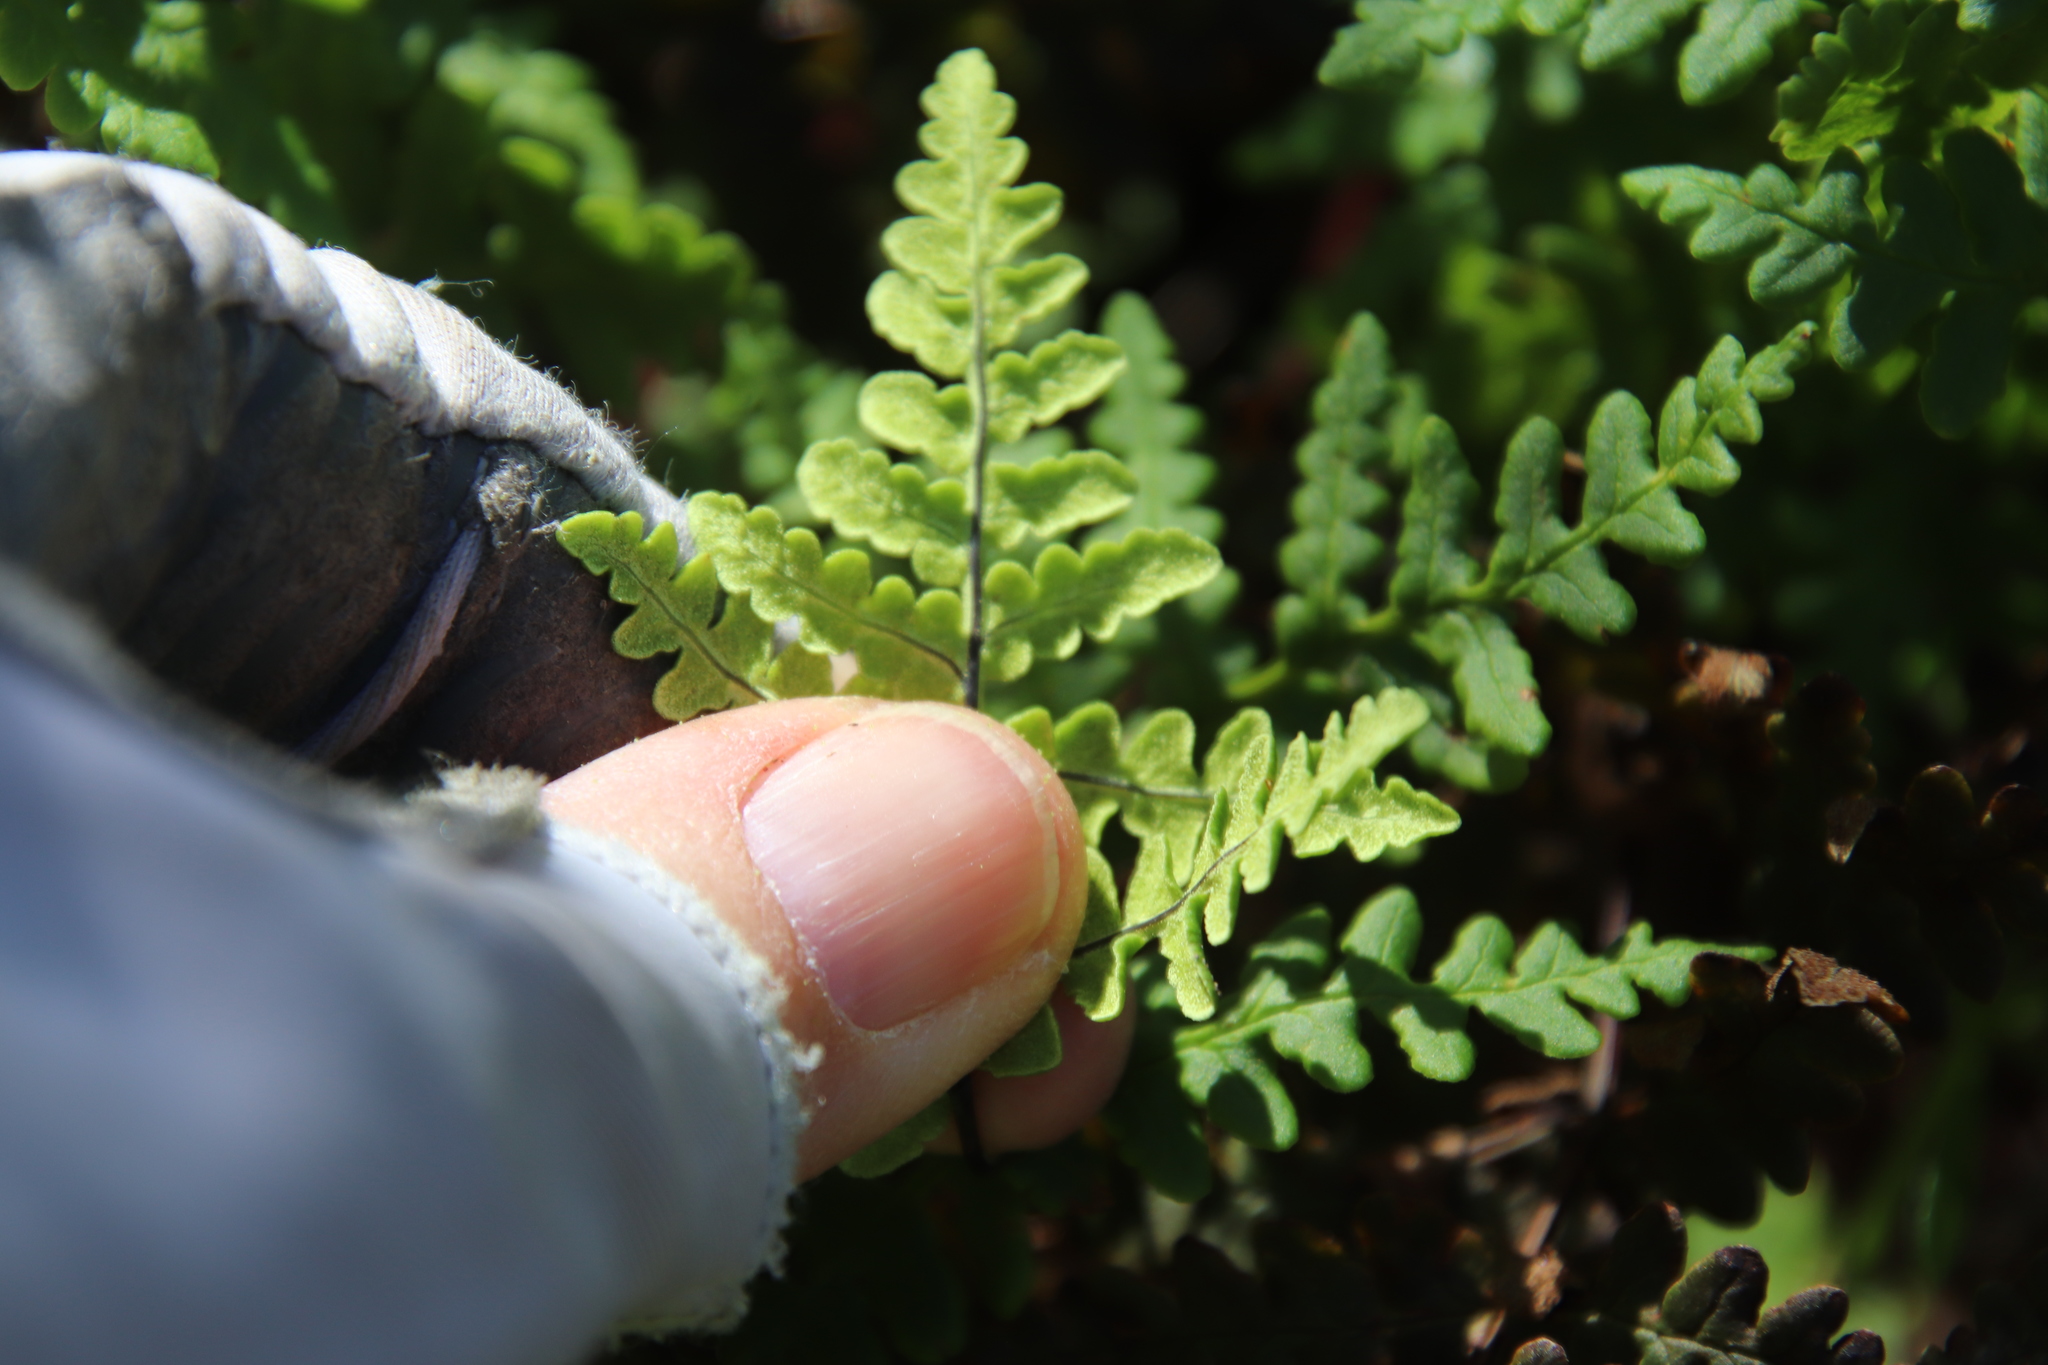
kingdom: Plantae
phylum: Tracheophyta
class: Polypodiopsida
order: Polypodiales
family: Pteridaceae
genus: Pentagramma
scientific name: Pentagramma triangularis
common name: Gold fern
